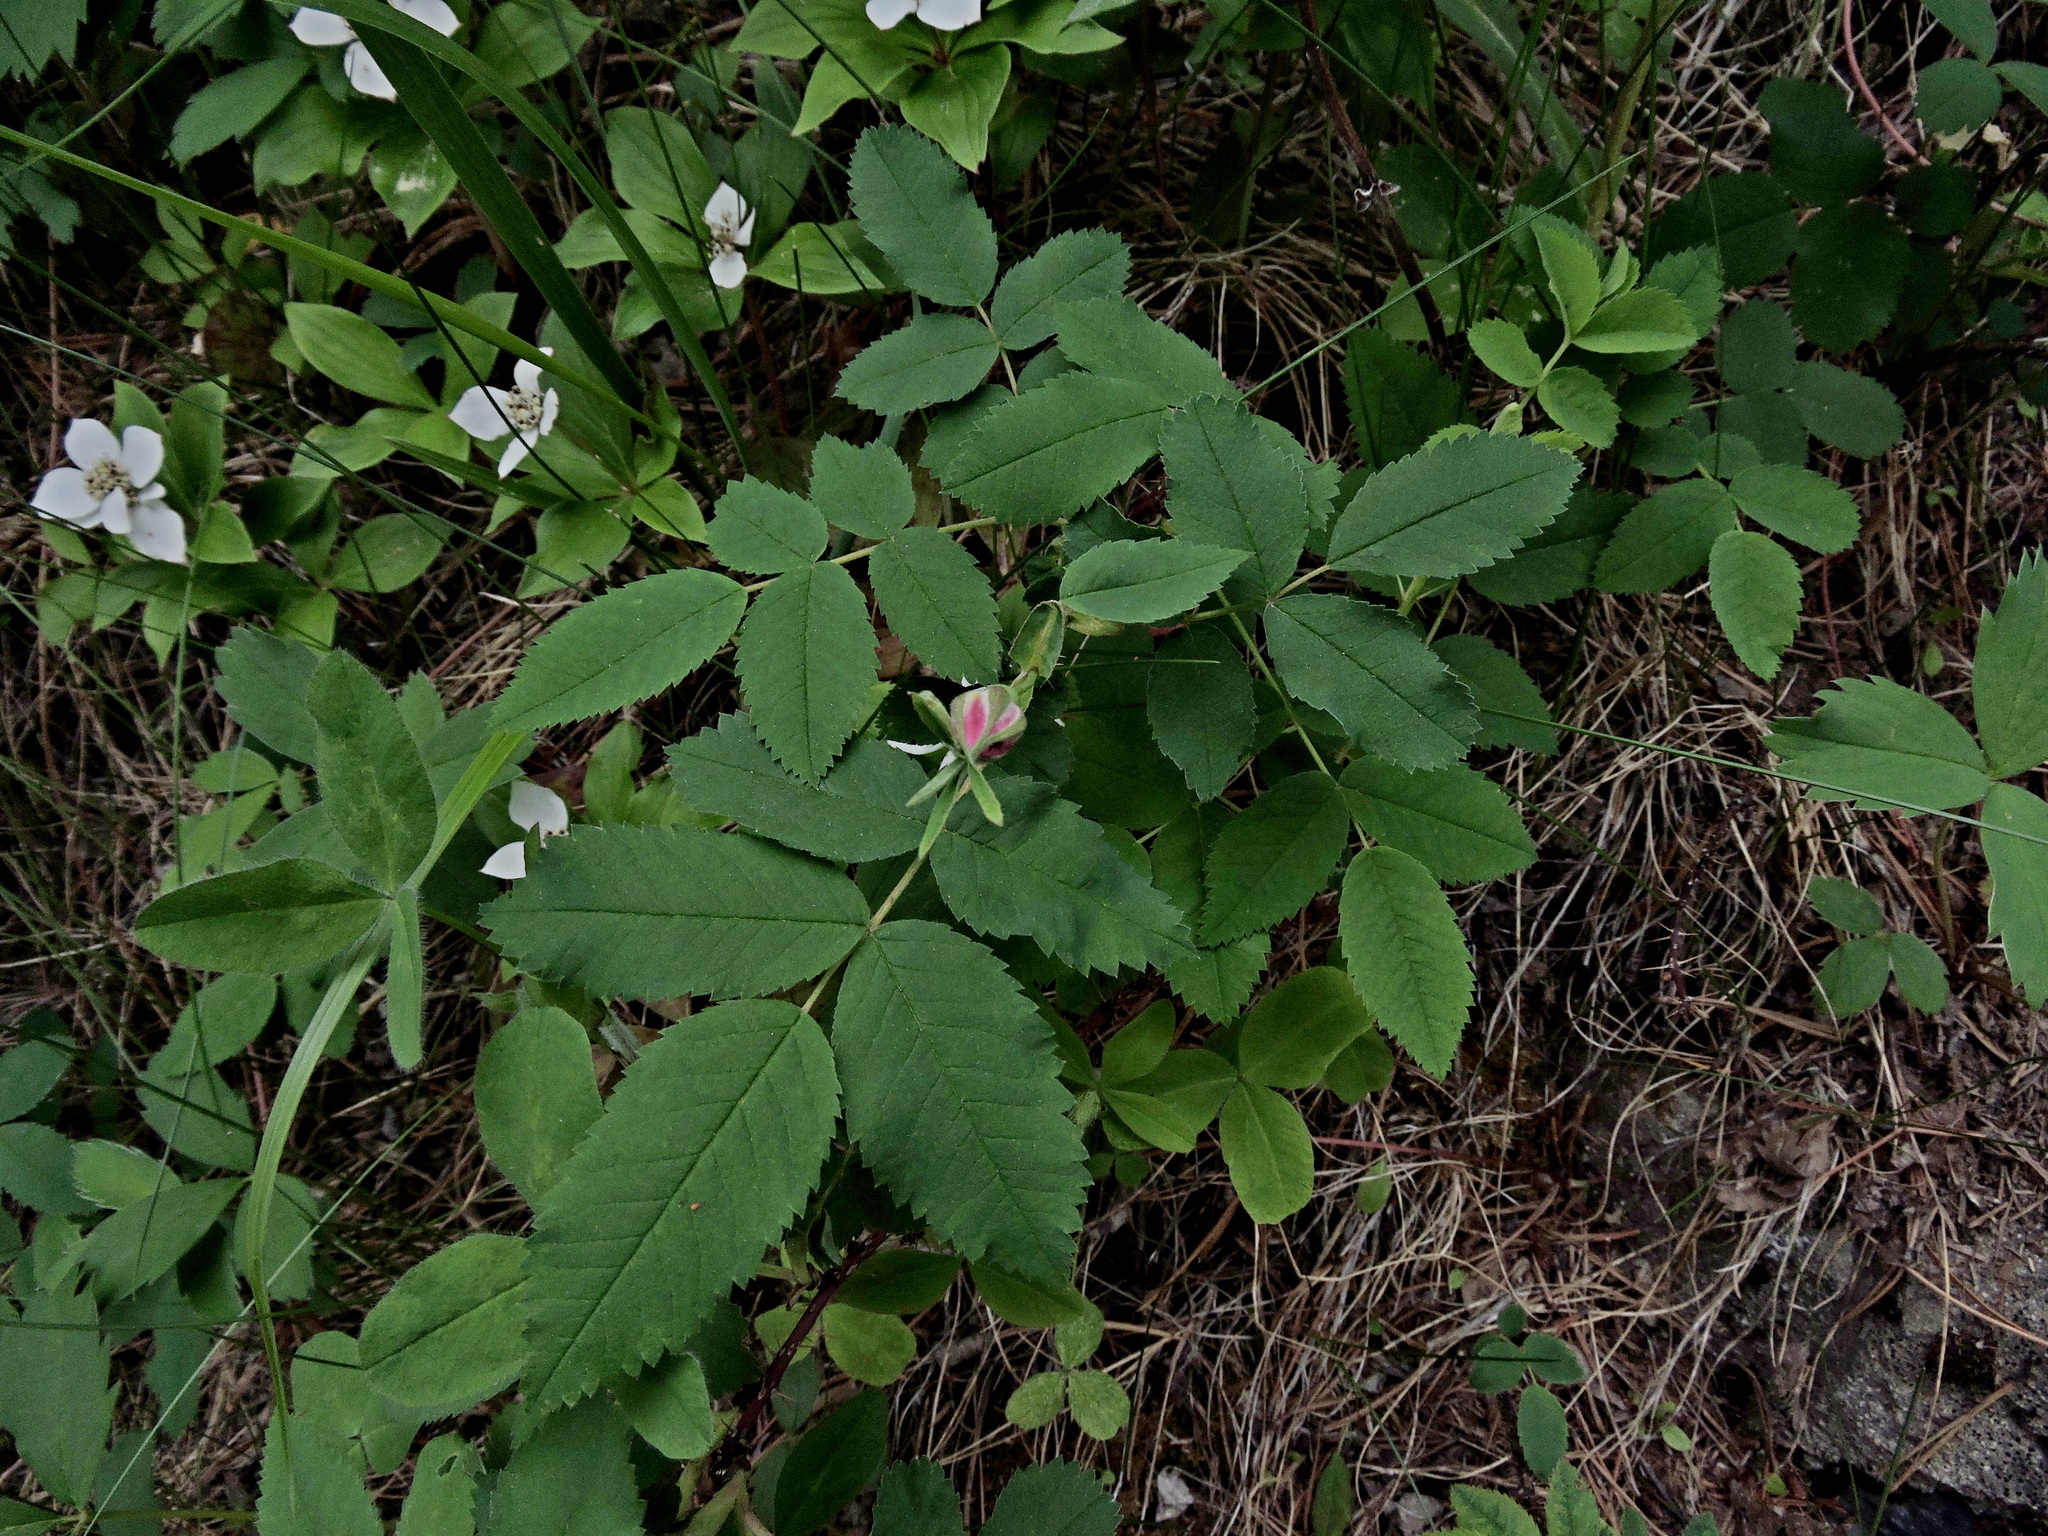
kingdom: Plantae
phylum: Tracheophyta
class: Magnoliopsida
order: Rosales
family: Rosaceae
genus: Rosa
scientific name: Rosa acicularis
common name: Prickly rose
